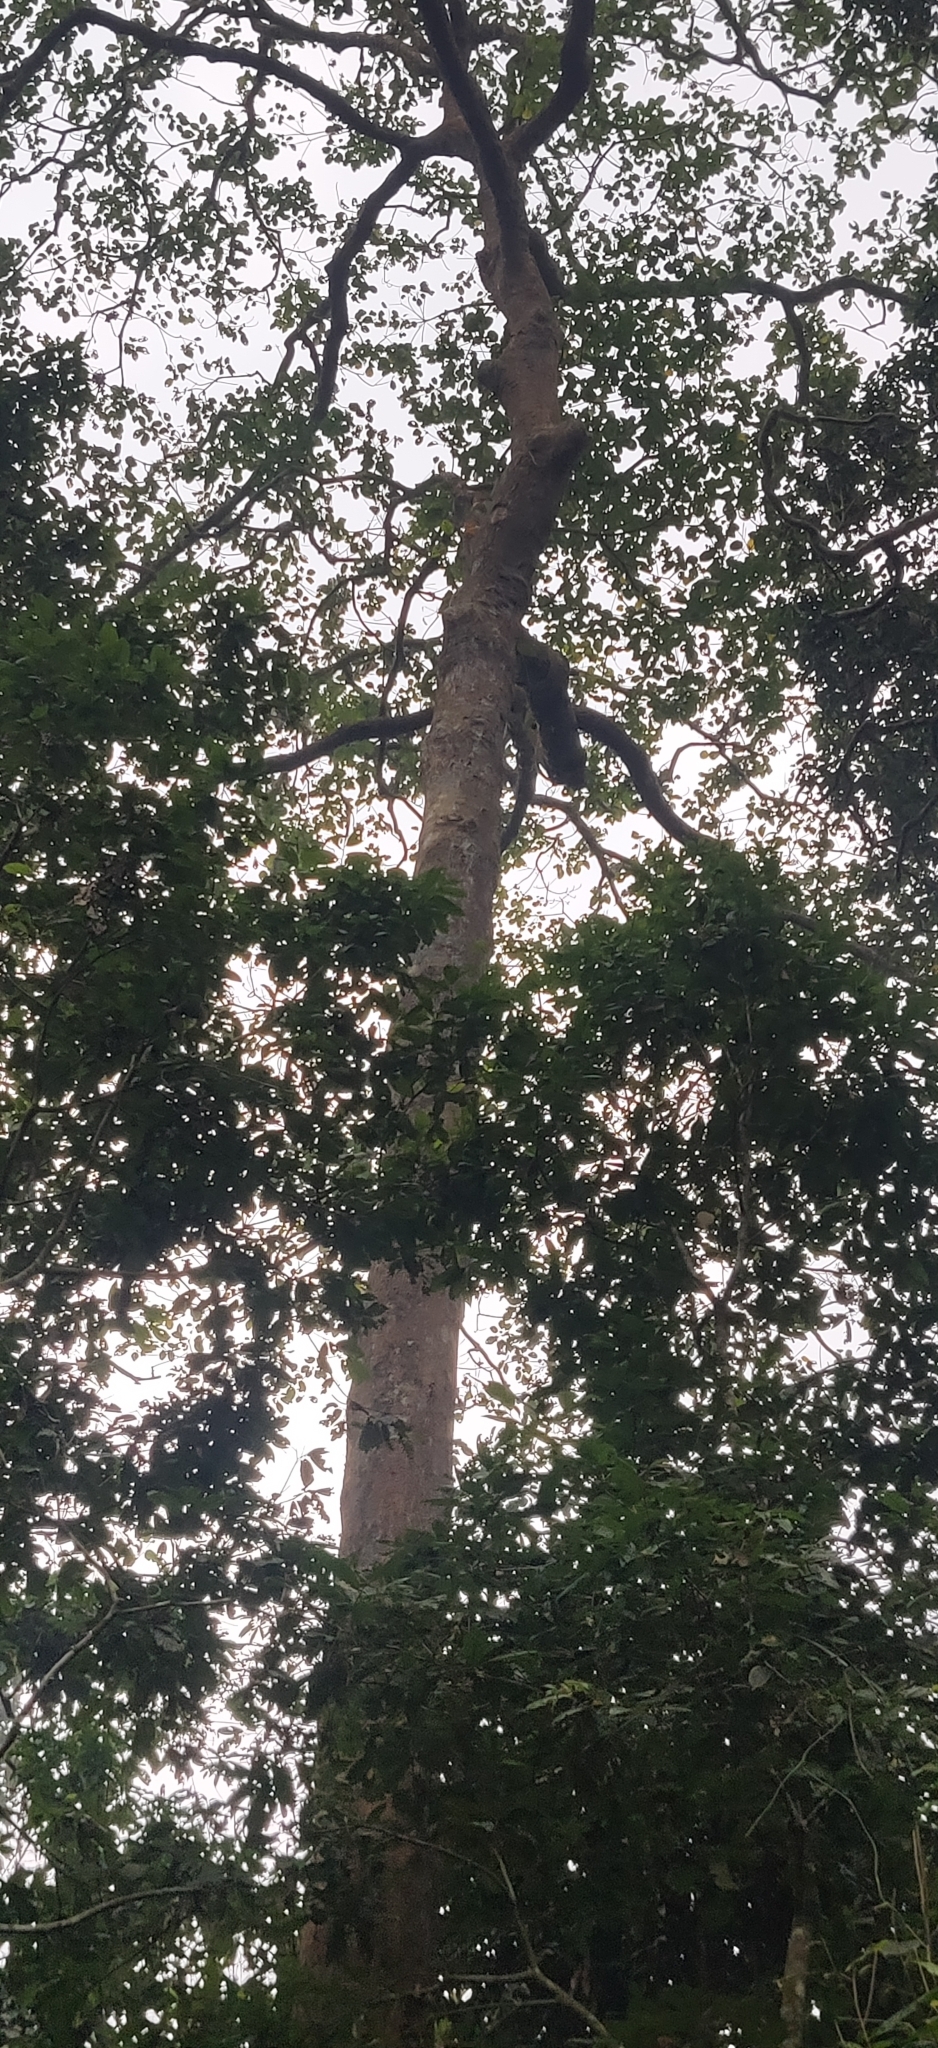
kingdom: Plantae
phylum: Tracheophyta
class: Magnoliopsida
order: Malpighiales
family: Euphorbiaceae
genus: Endospermum
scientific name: Endospermum chinense
